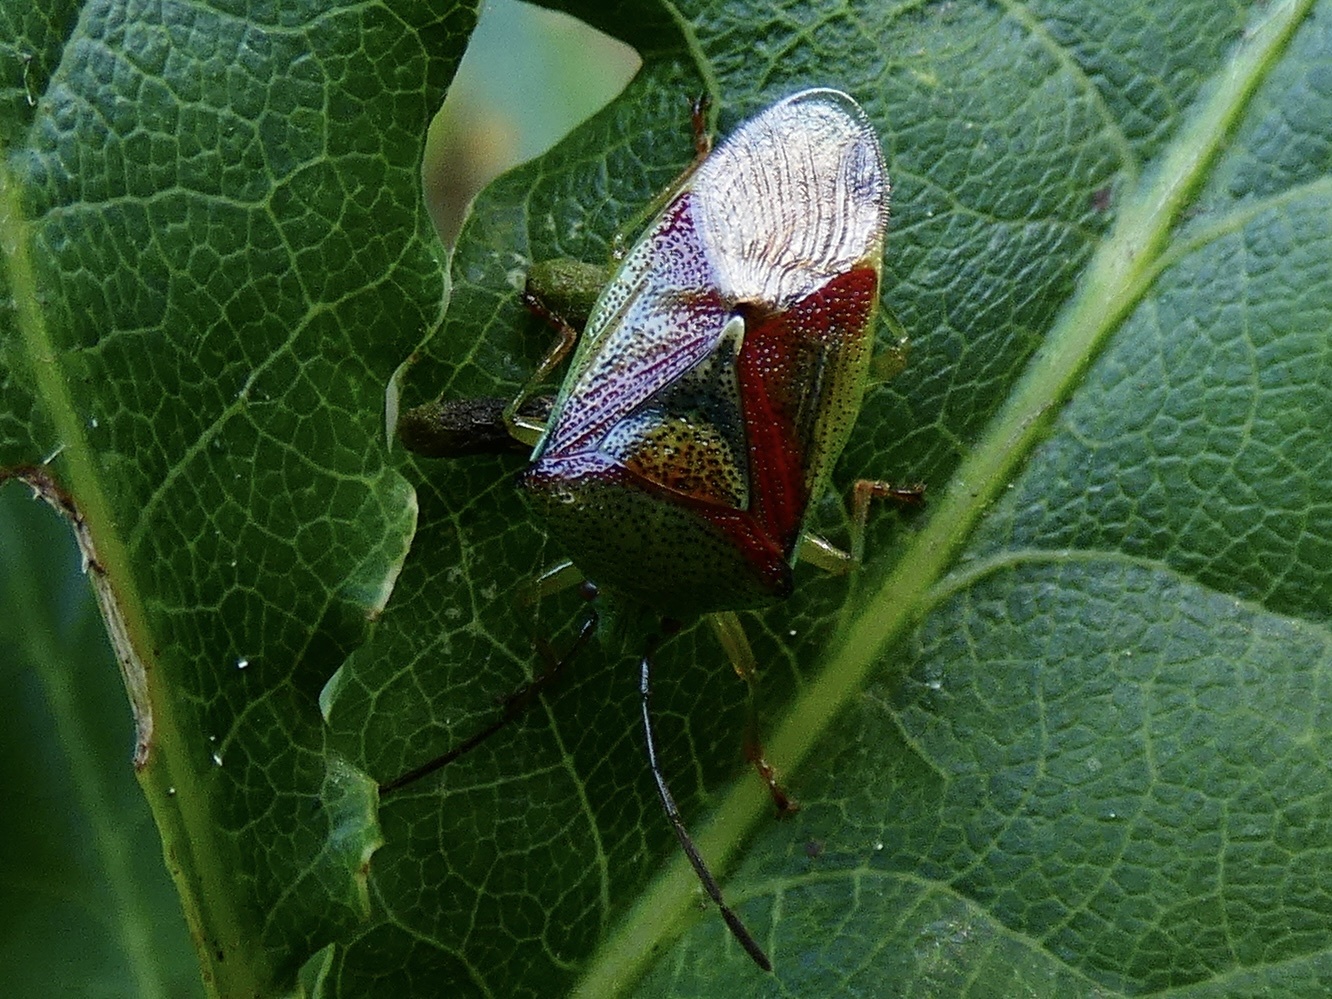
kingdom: Animalia
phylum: Arthropoda
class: Insecta
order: Hemiptera
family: Acanthosomatidae
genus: Elasmostethus
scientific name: Elasmostethus interstinctus
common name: Birch shieldbug
